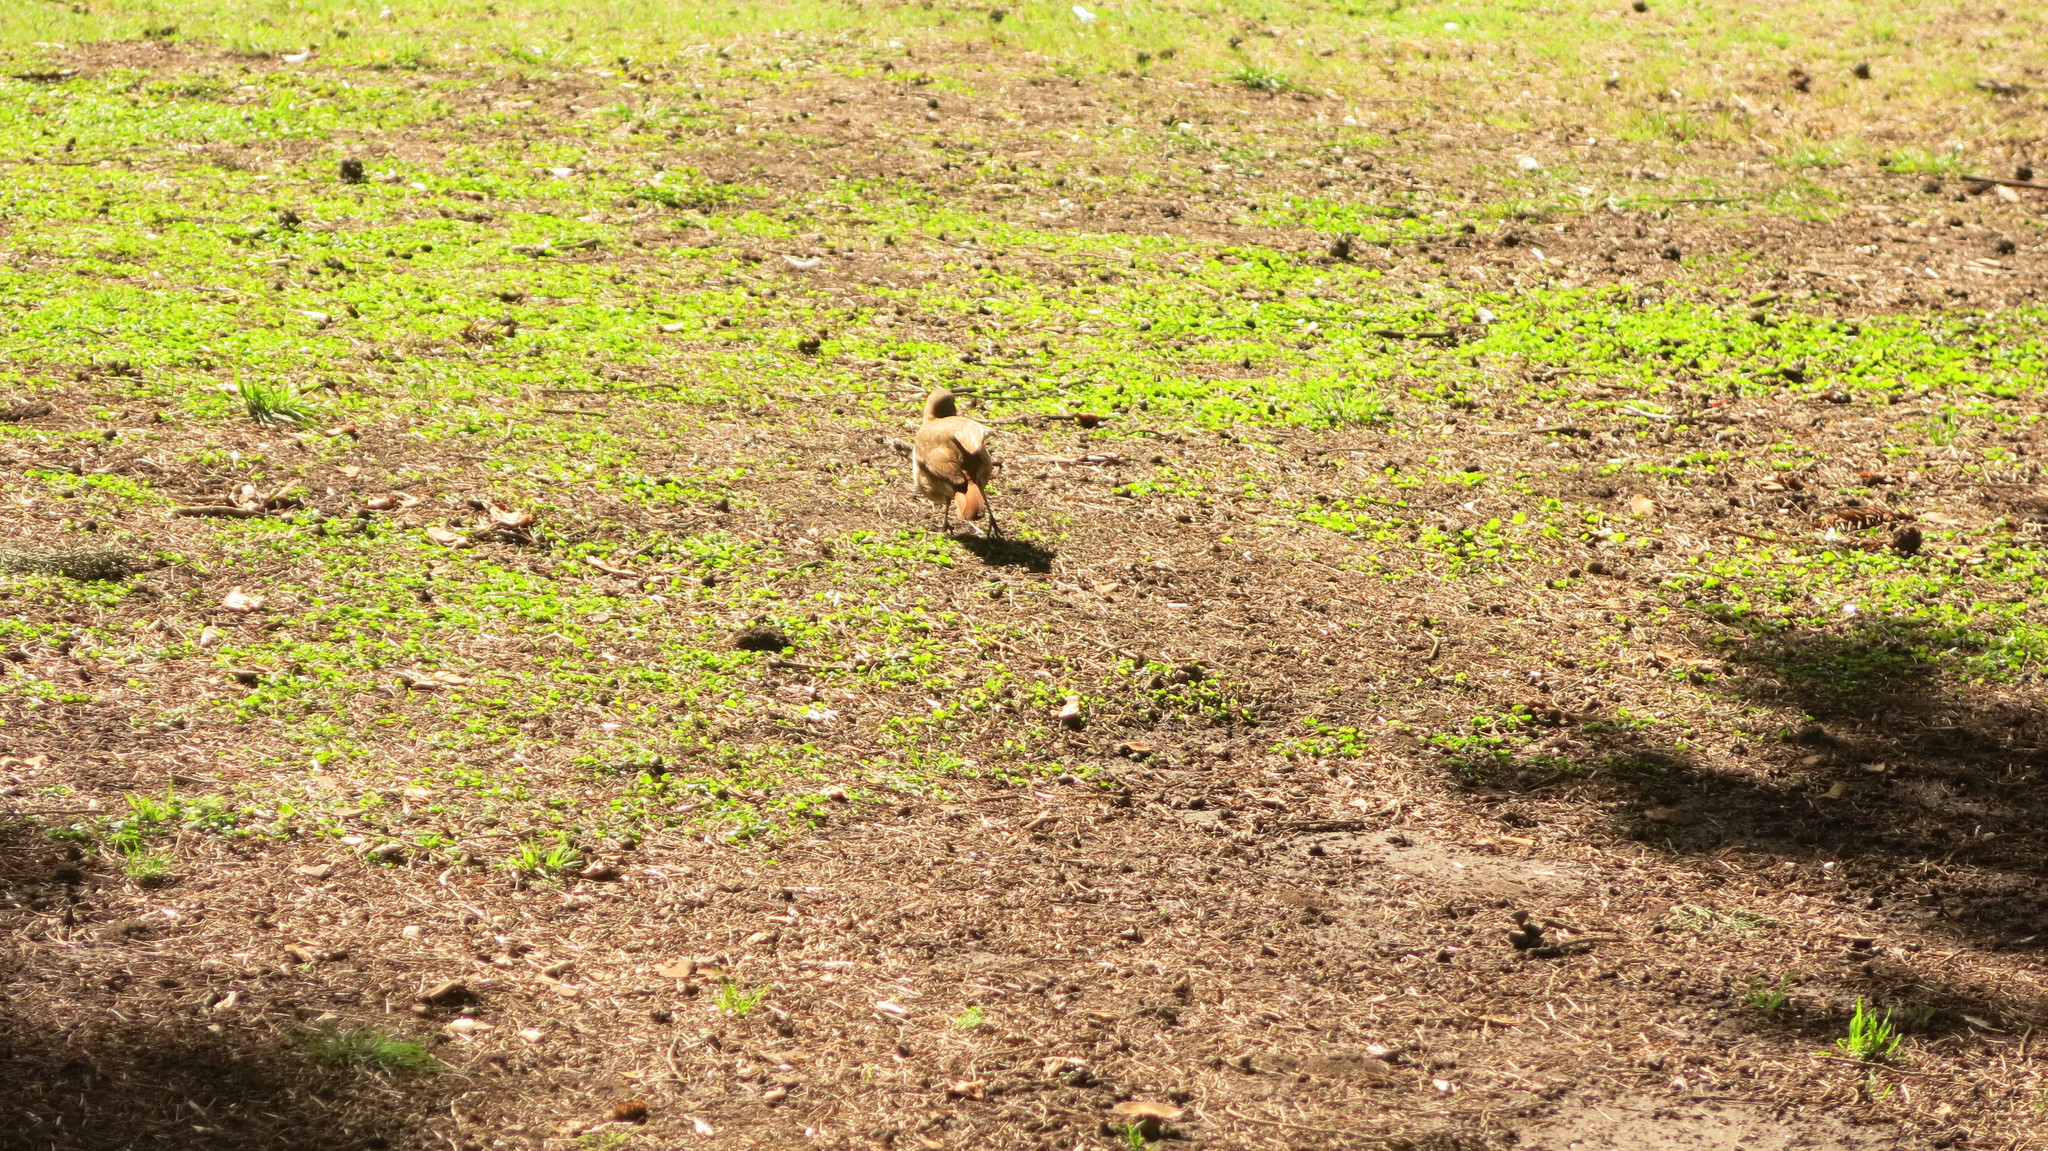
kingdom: Animalia
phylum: Chordata
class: Aves
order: Passeriformes
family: Furnariidae
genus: Furnarius
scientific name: Furnarius rufus
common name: Rufous hornero
